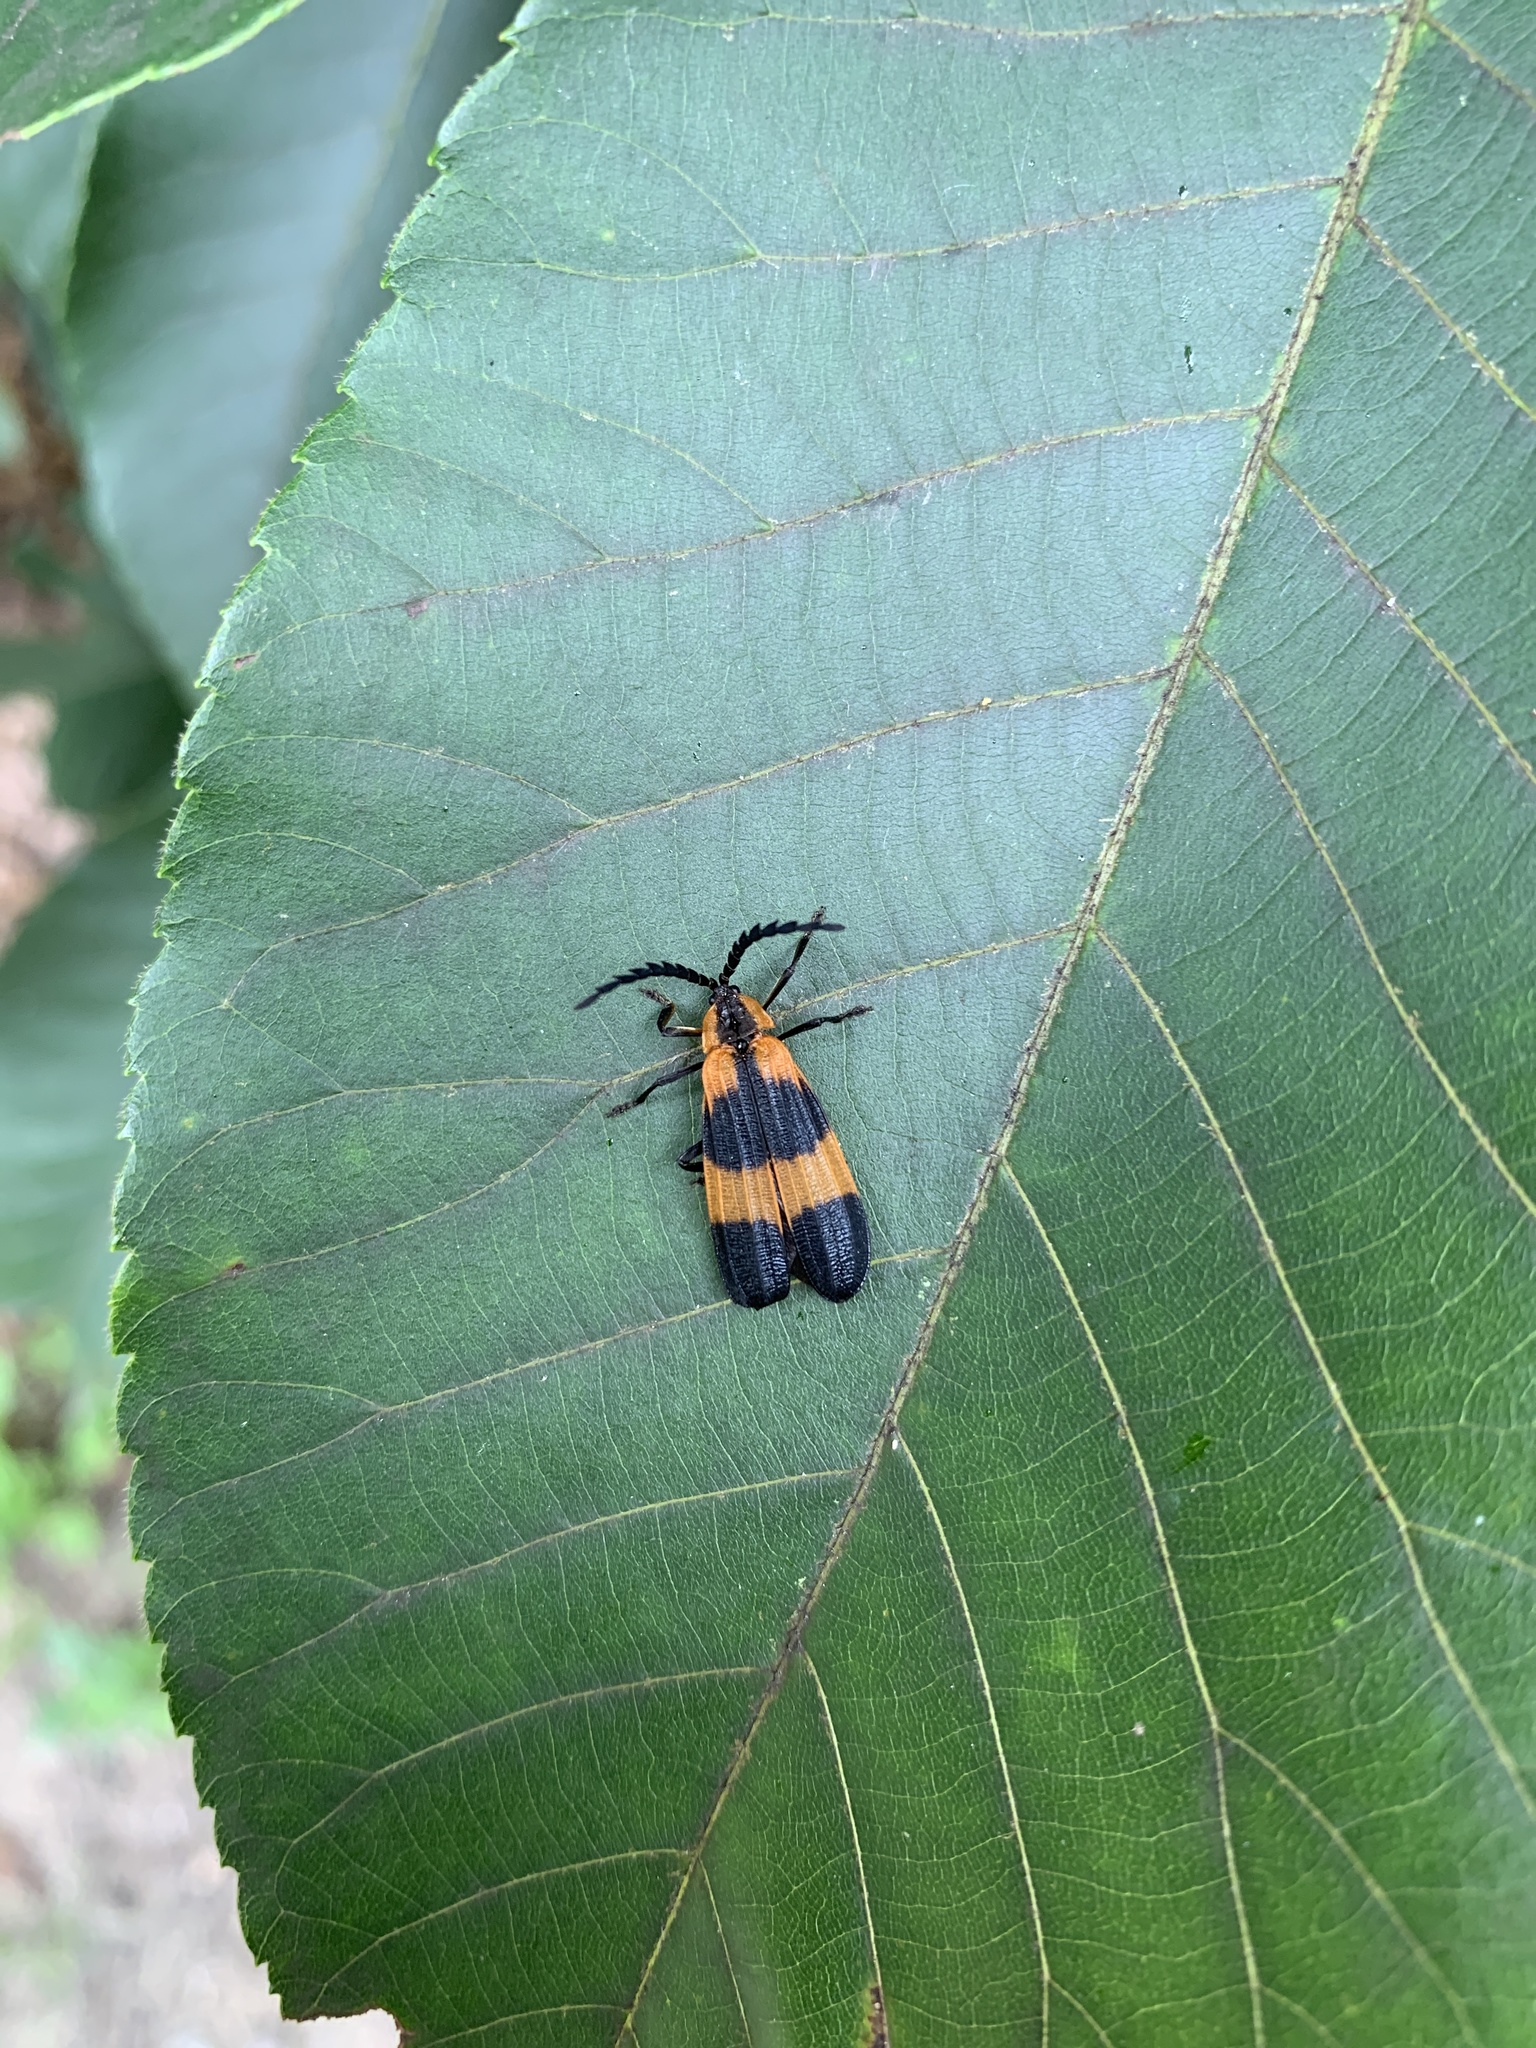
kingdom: Animalia
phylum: Arthropoda
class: Insecta
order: Coleoptera
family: Lycidae
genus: Calopteron
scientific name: Calopteron reticulatum
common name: Banded net-winged beetle
